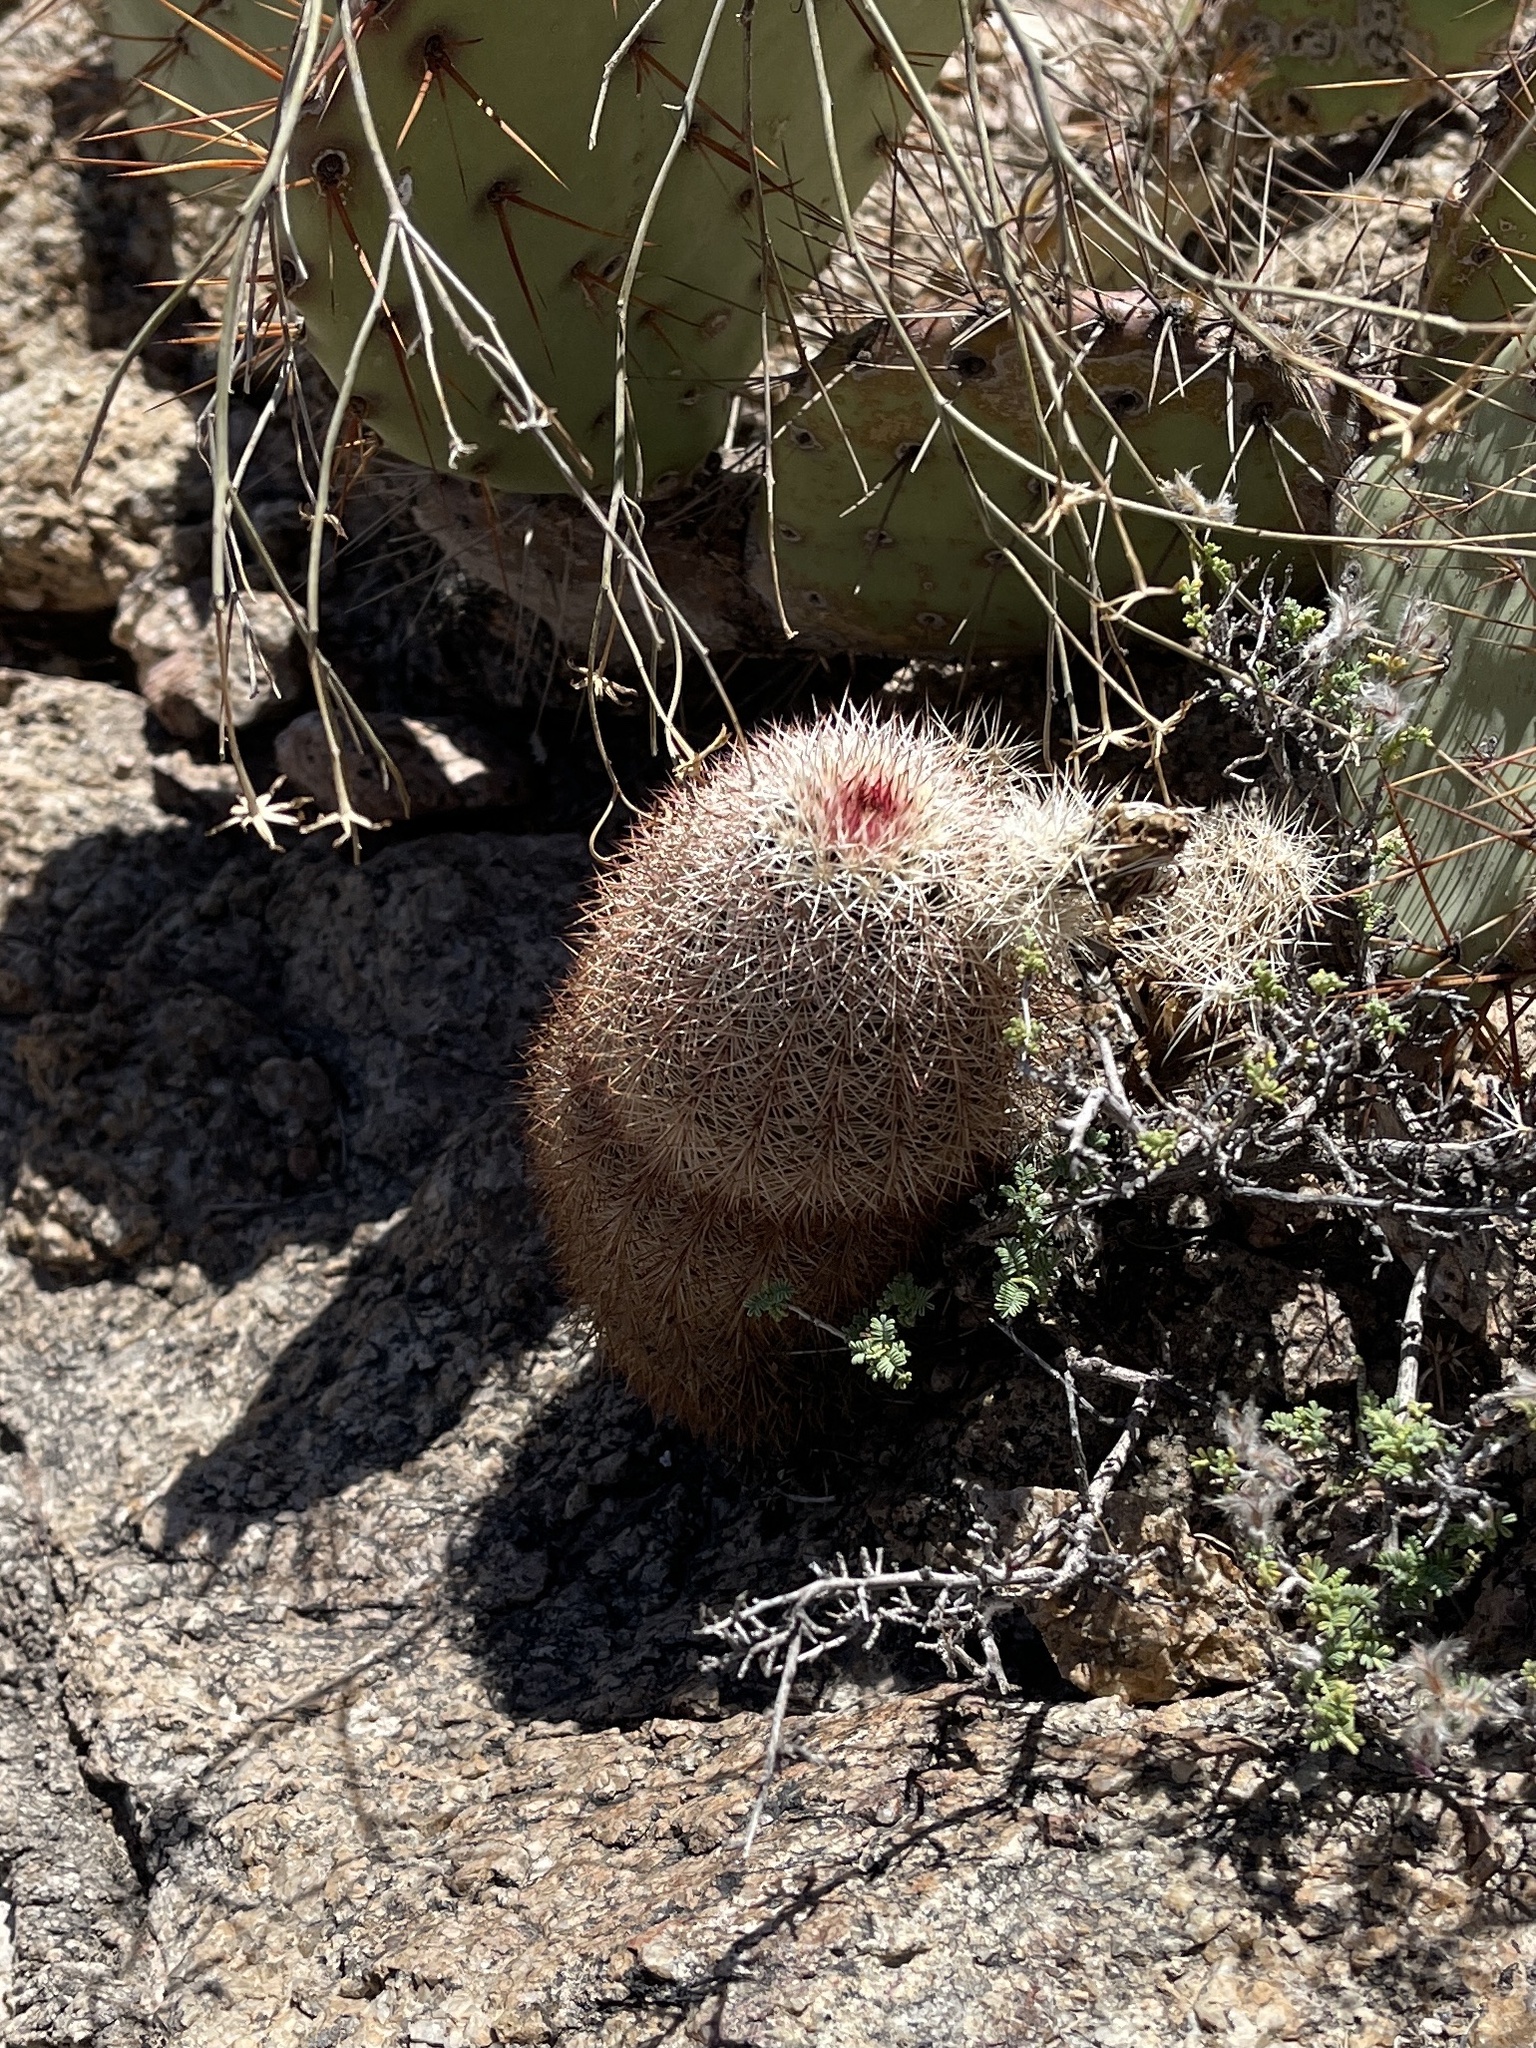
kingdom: Plantae
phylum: Tracheophyta
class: Magnoliopsida
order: Caryophyllales
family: Cactaceae
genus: Echinocereus
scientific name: Echinocereus dasyacanthus
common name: Spiny hedgehog cactus
